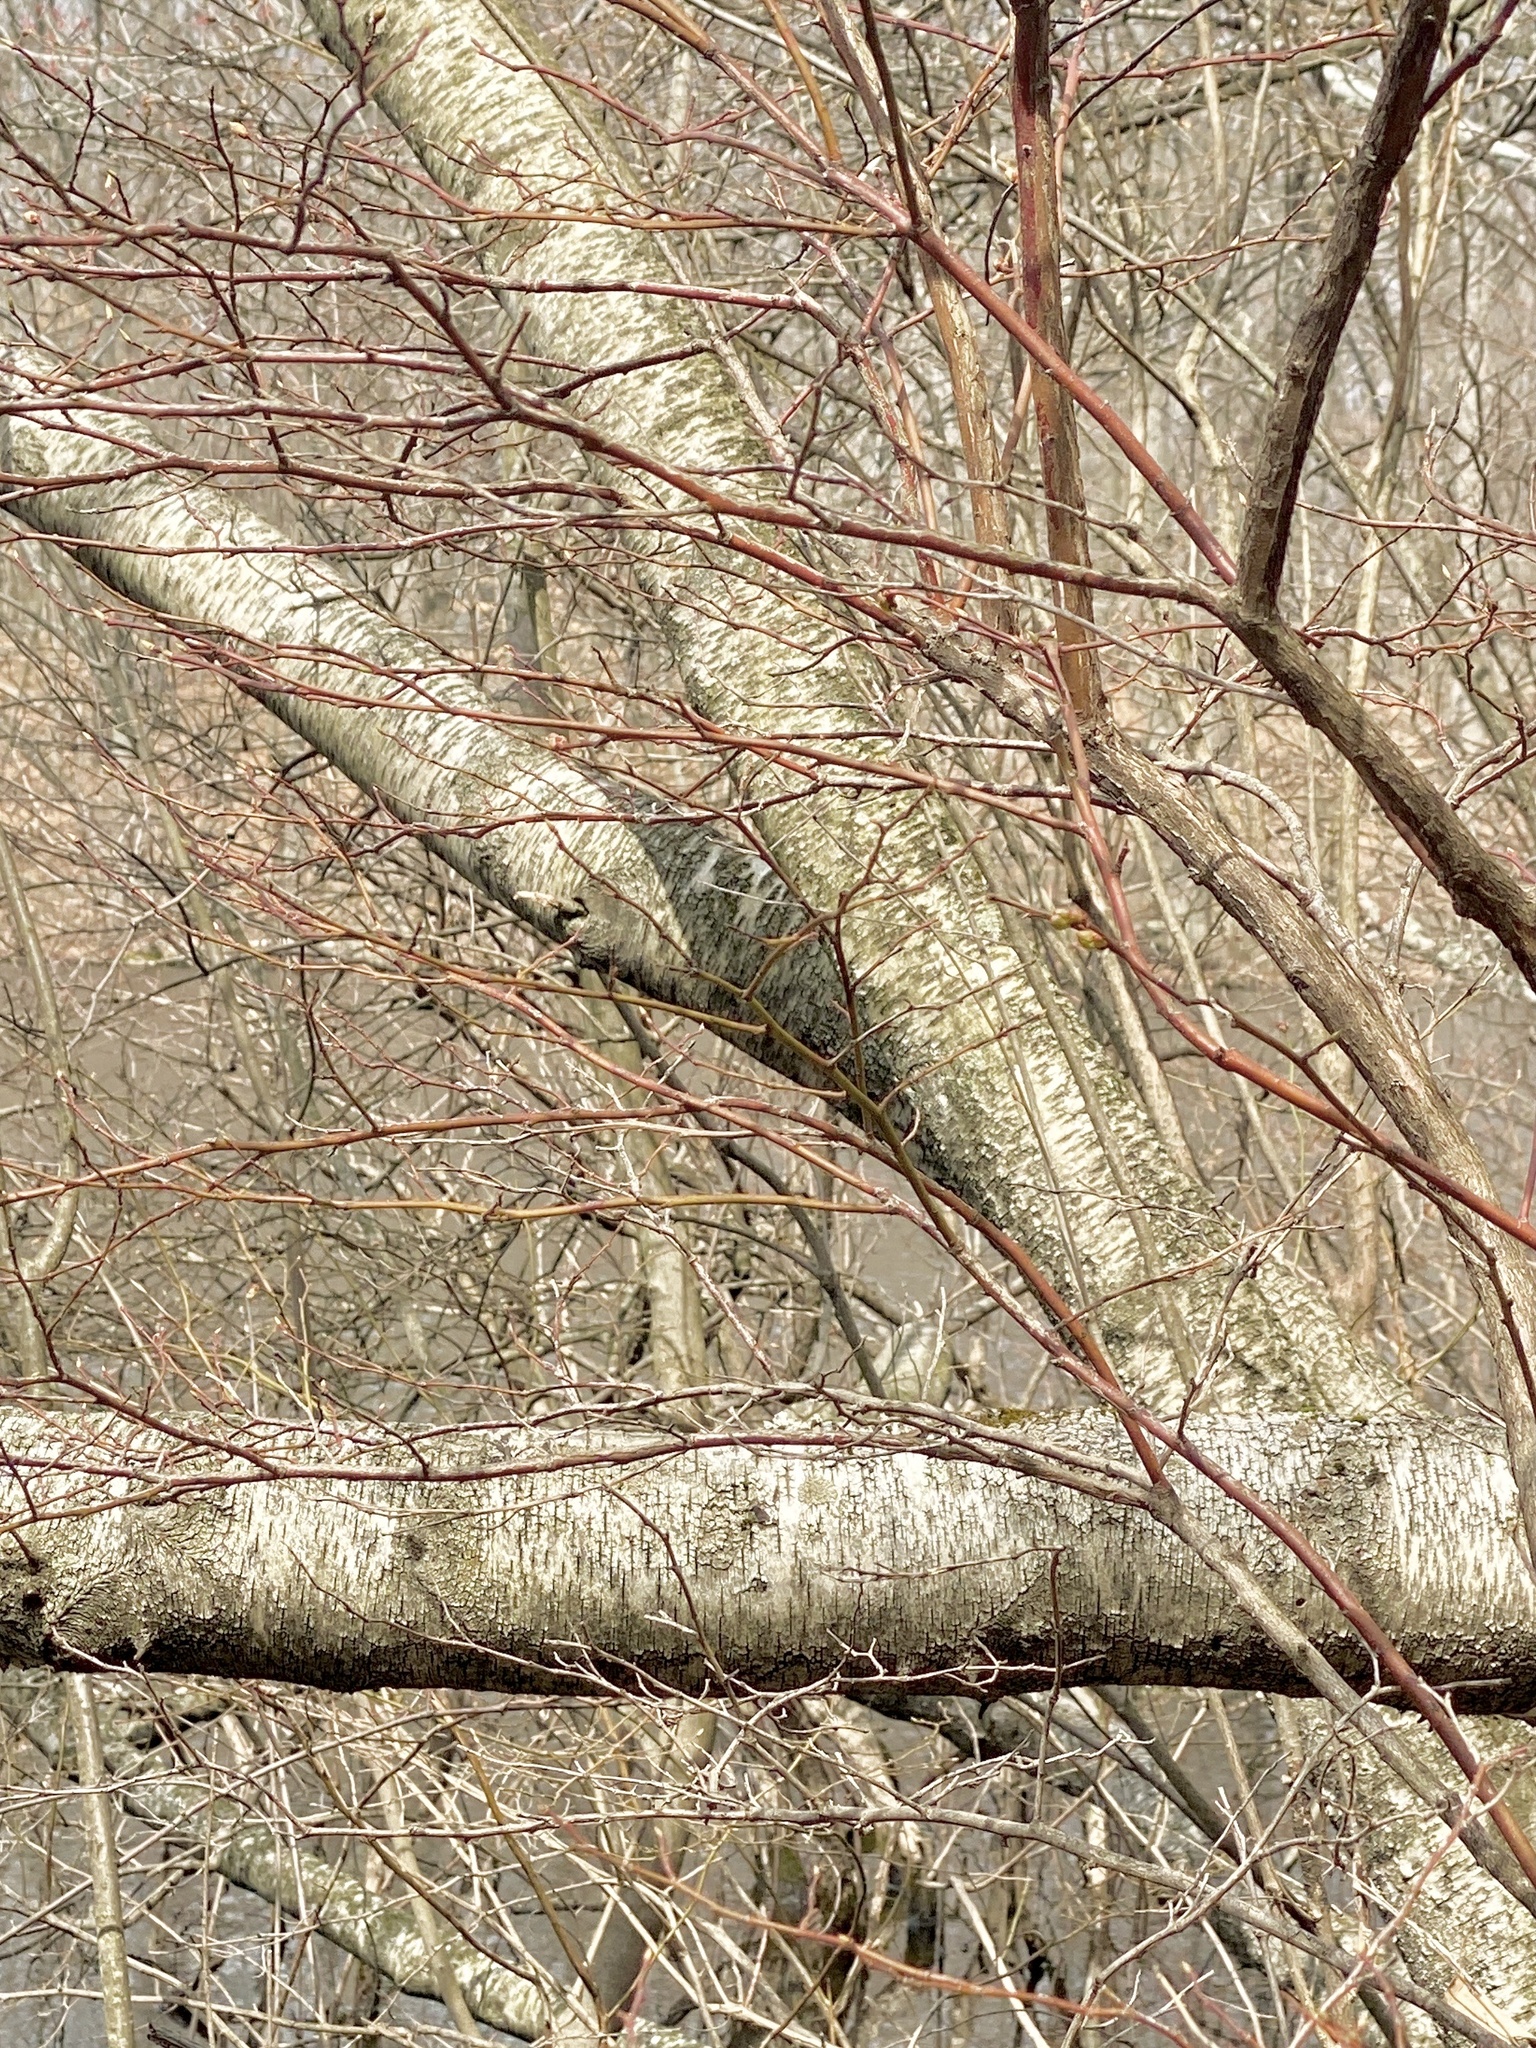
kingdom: Plantae
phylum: Tracheophyta
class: Magnoliopsida
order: Fagales
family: Betulaceae
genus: Betula
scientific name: Betula populifolia
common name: Fire birch
